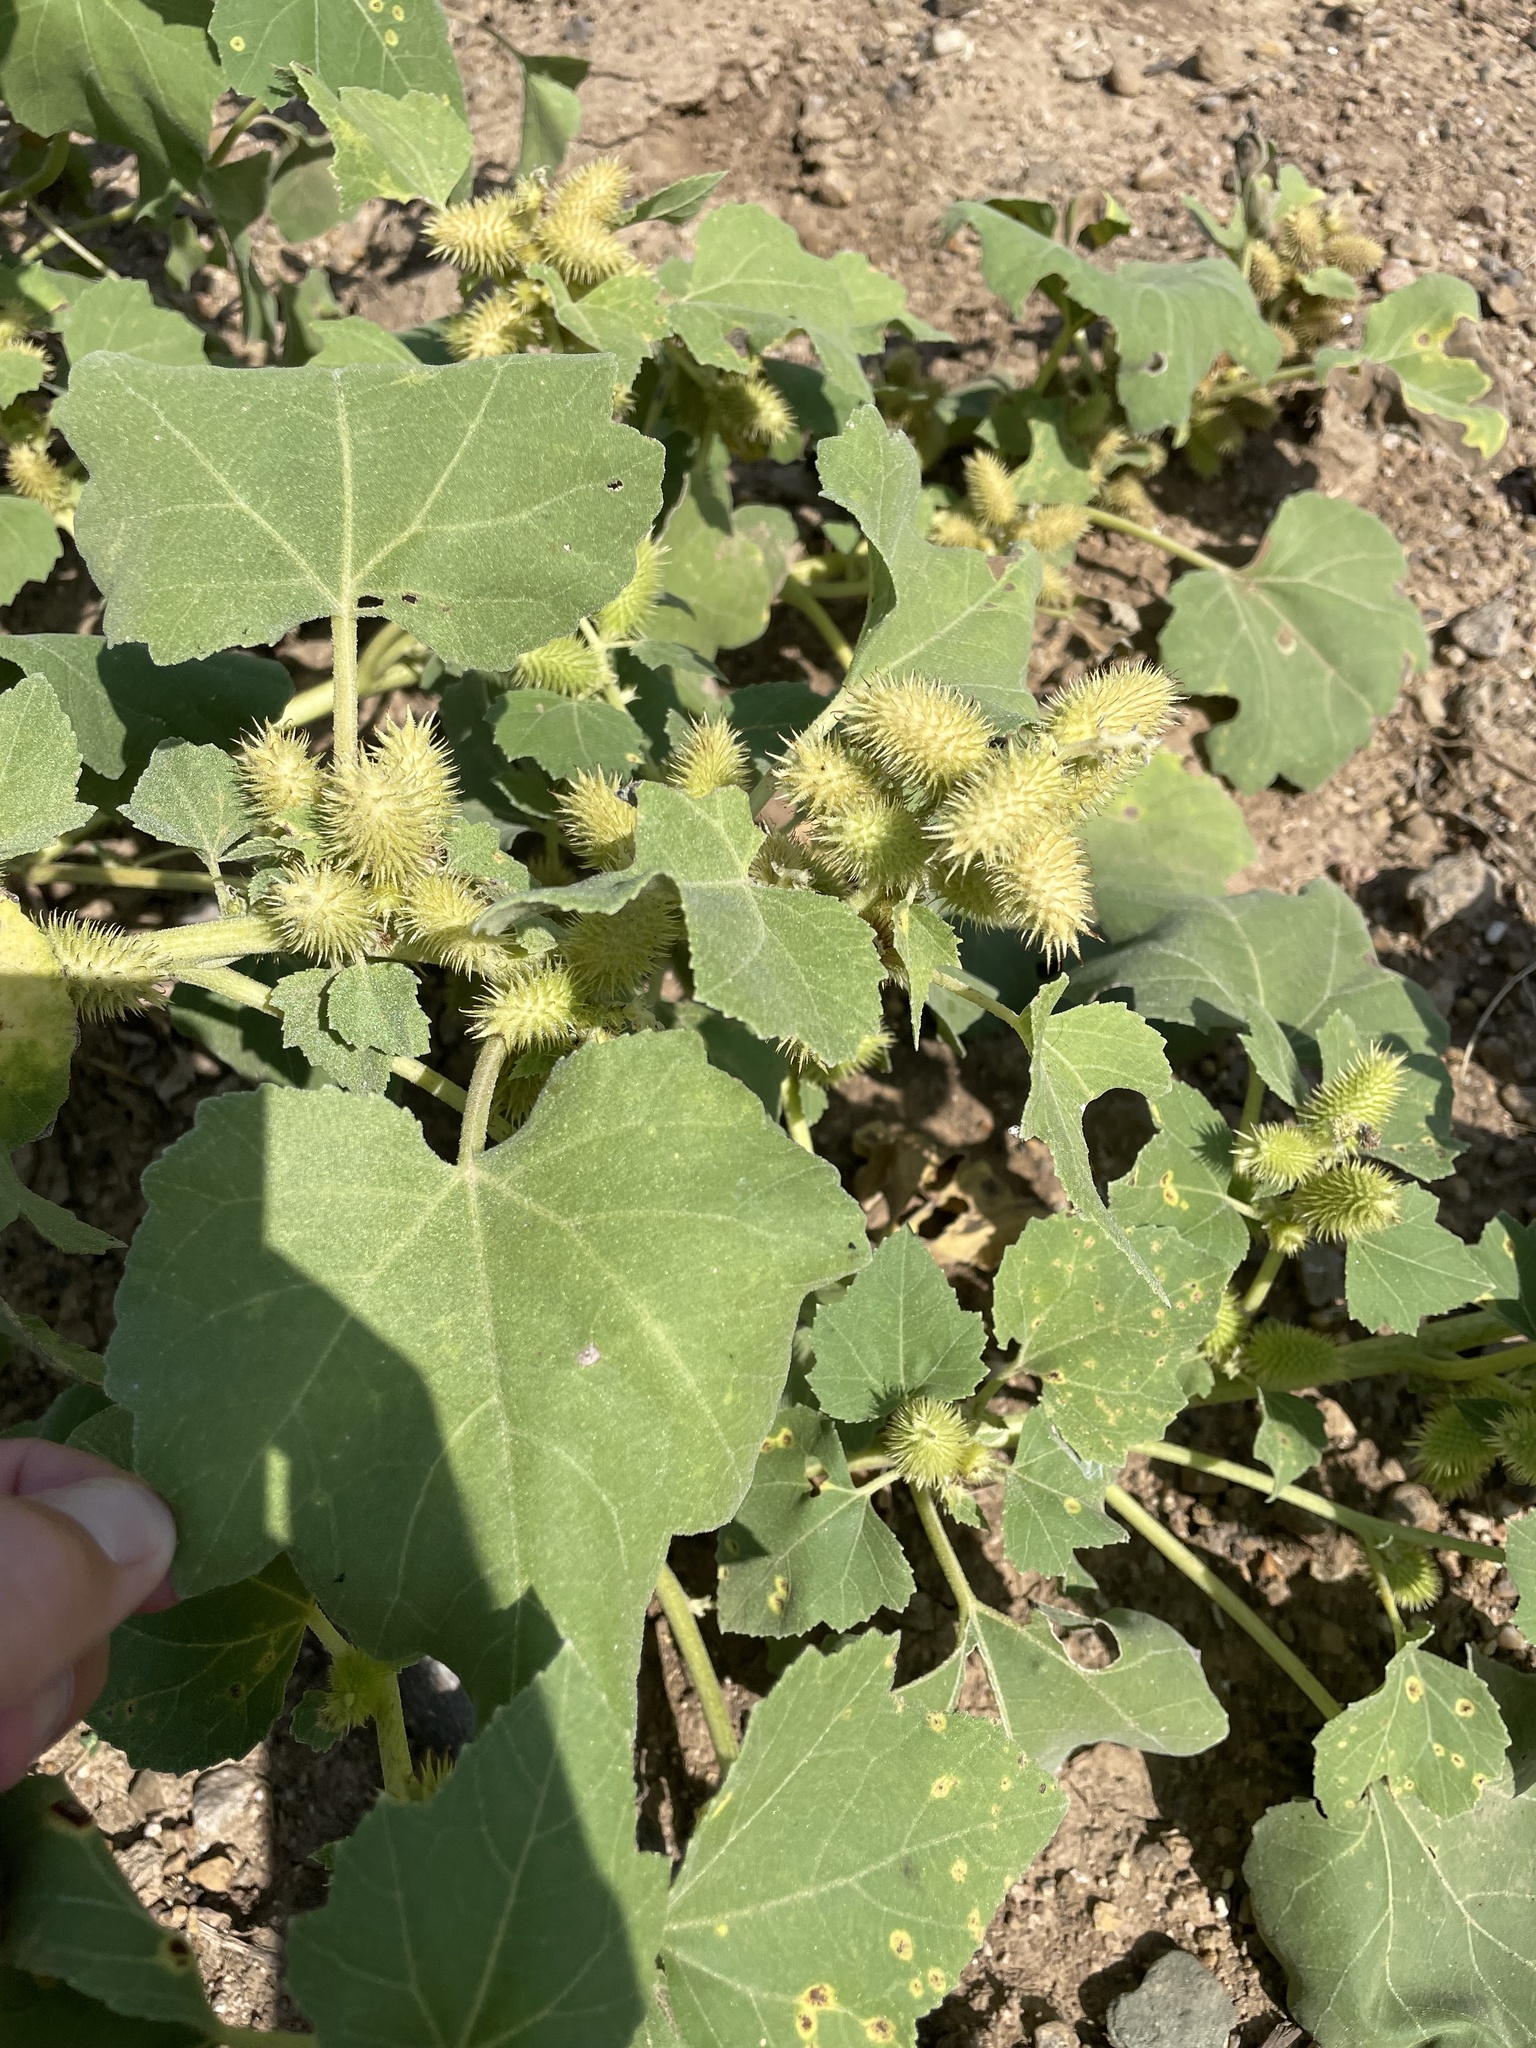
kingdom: Plantae
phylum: Tracheophyta
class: Magnoliopsida
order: Asterales
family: Asteraceae
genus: Xanthium
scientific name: Xanthium strumarium
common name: Rough cocklebur
